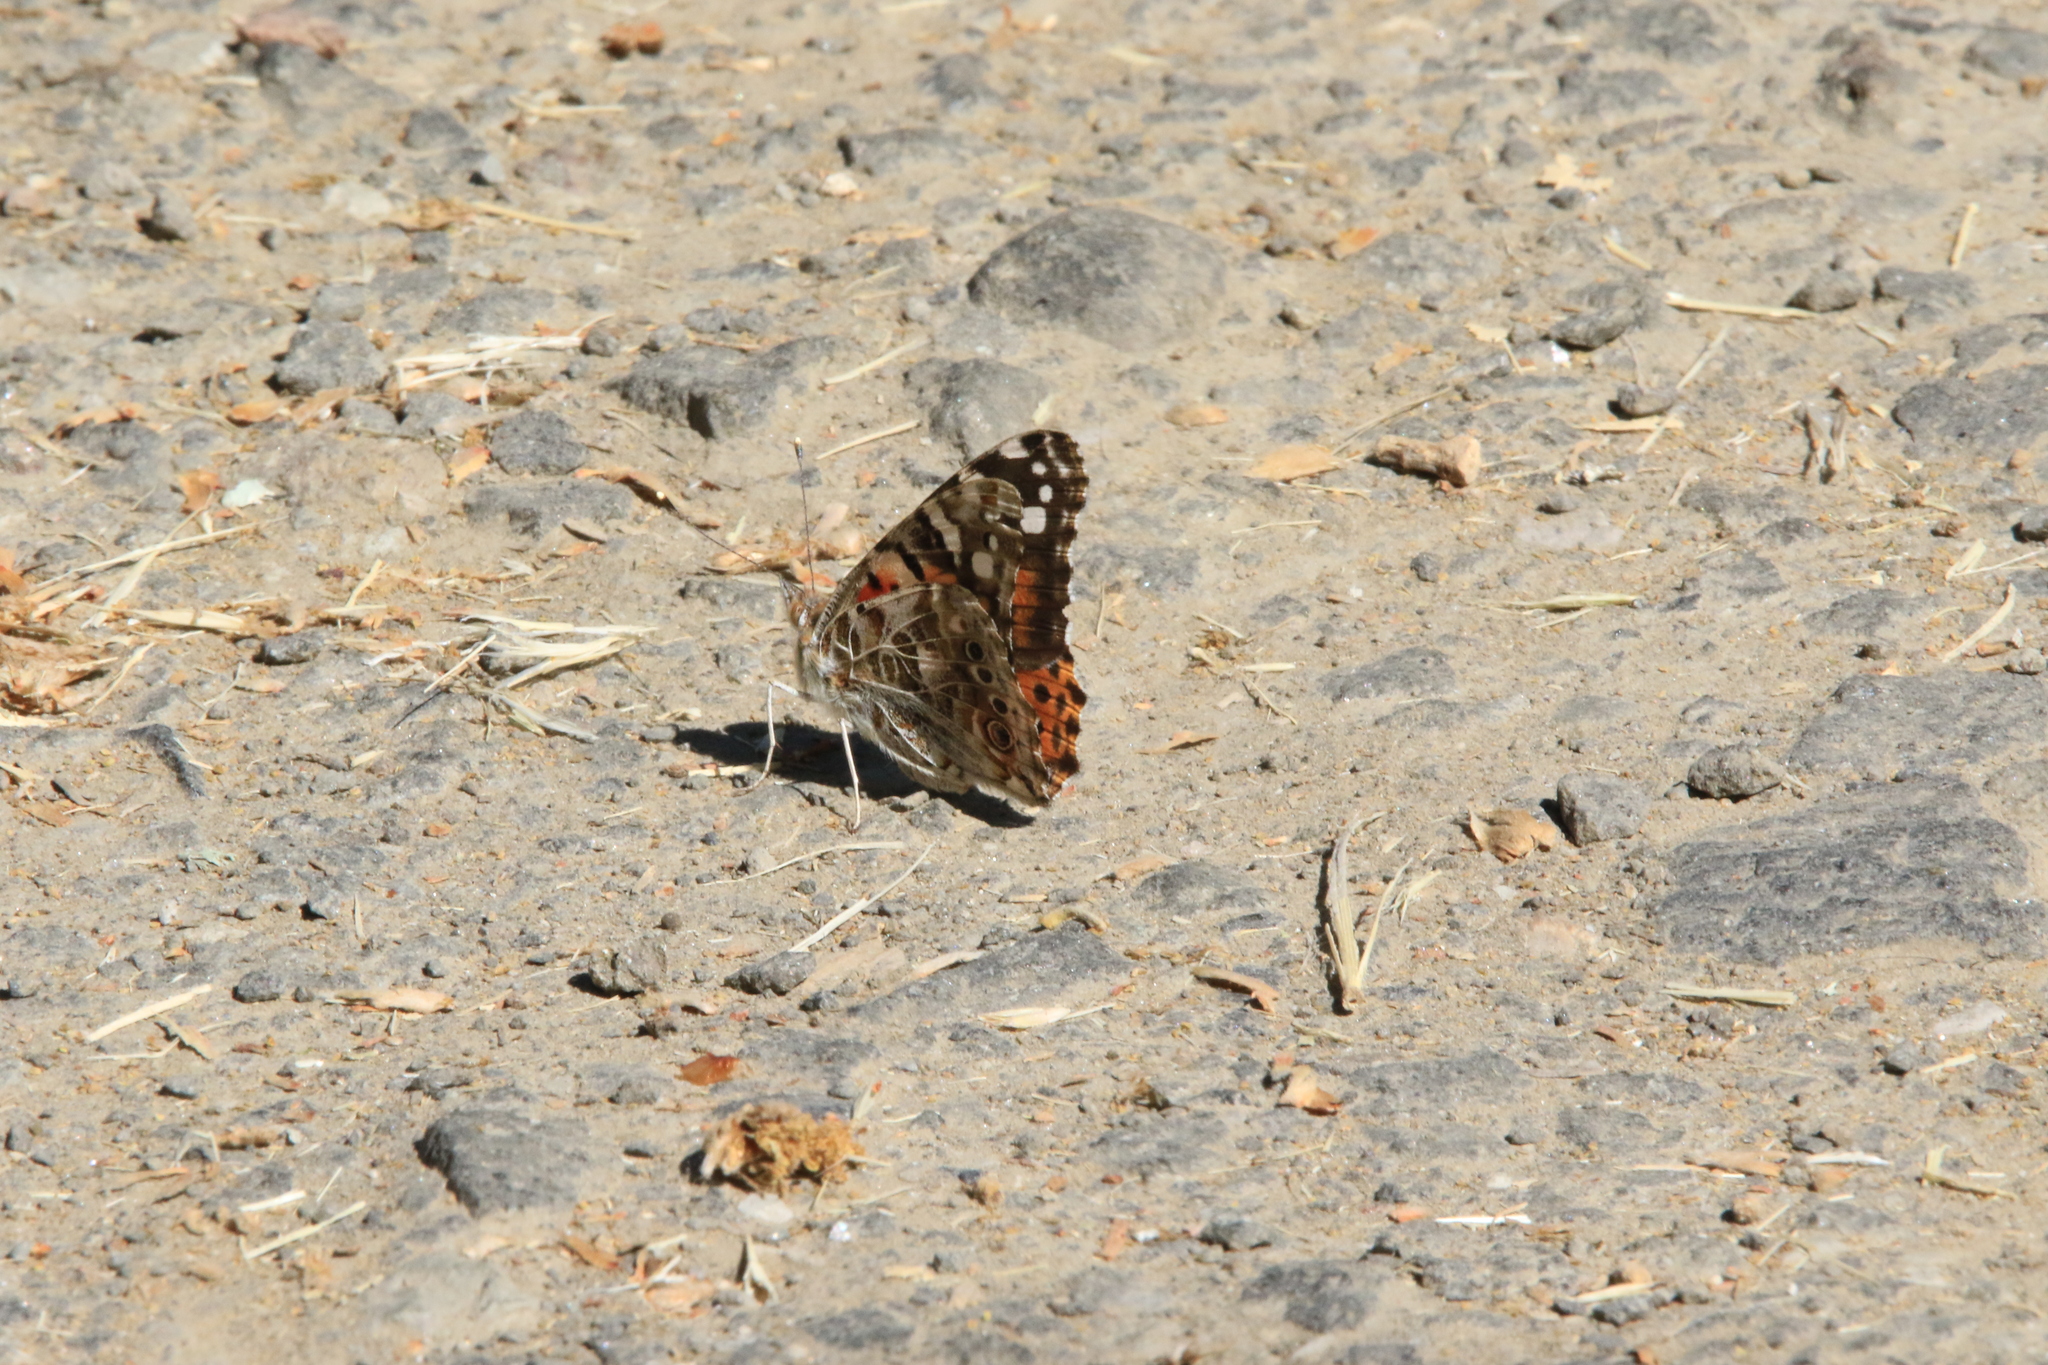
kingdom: Animalia
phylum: Arthropoda
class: Insecta
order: Lepidoptera
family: Nymphalidae
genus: Vanessa
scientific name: Vanessa cardui
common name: Painted lady
